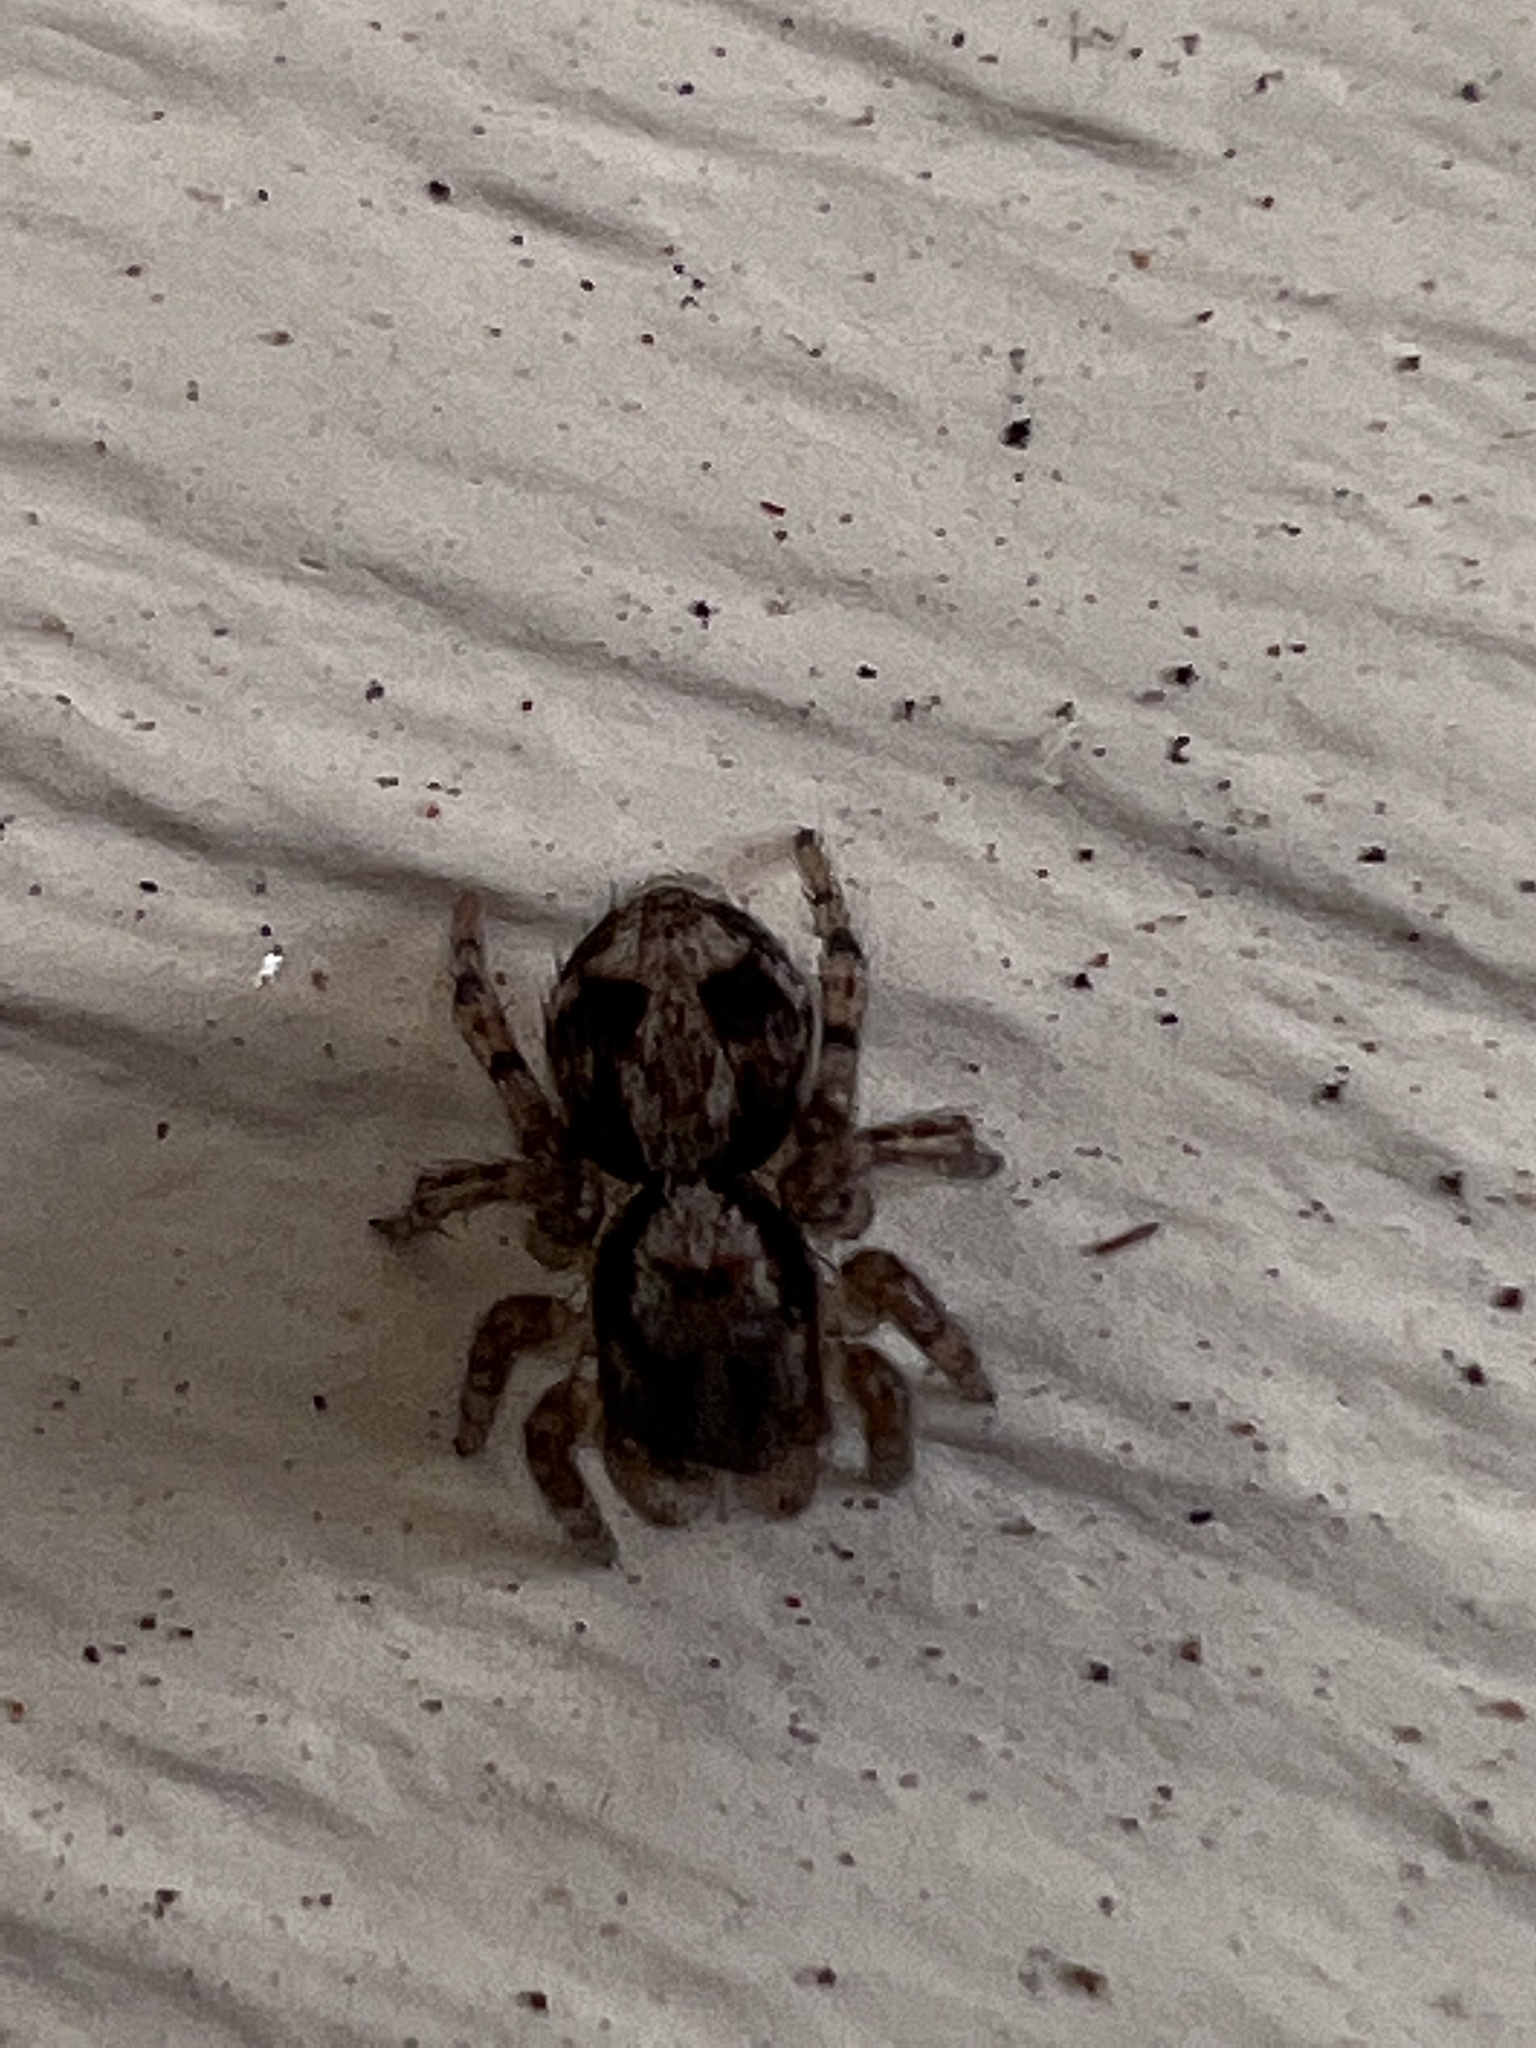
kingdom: Animalia
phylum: Arthropoda
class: Arachnida
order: Araneae
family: Salticidae
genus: Naphrys
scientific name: Naphrys pulex
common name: Flea jumping spider
